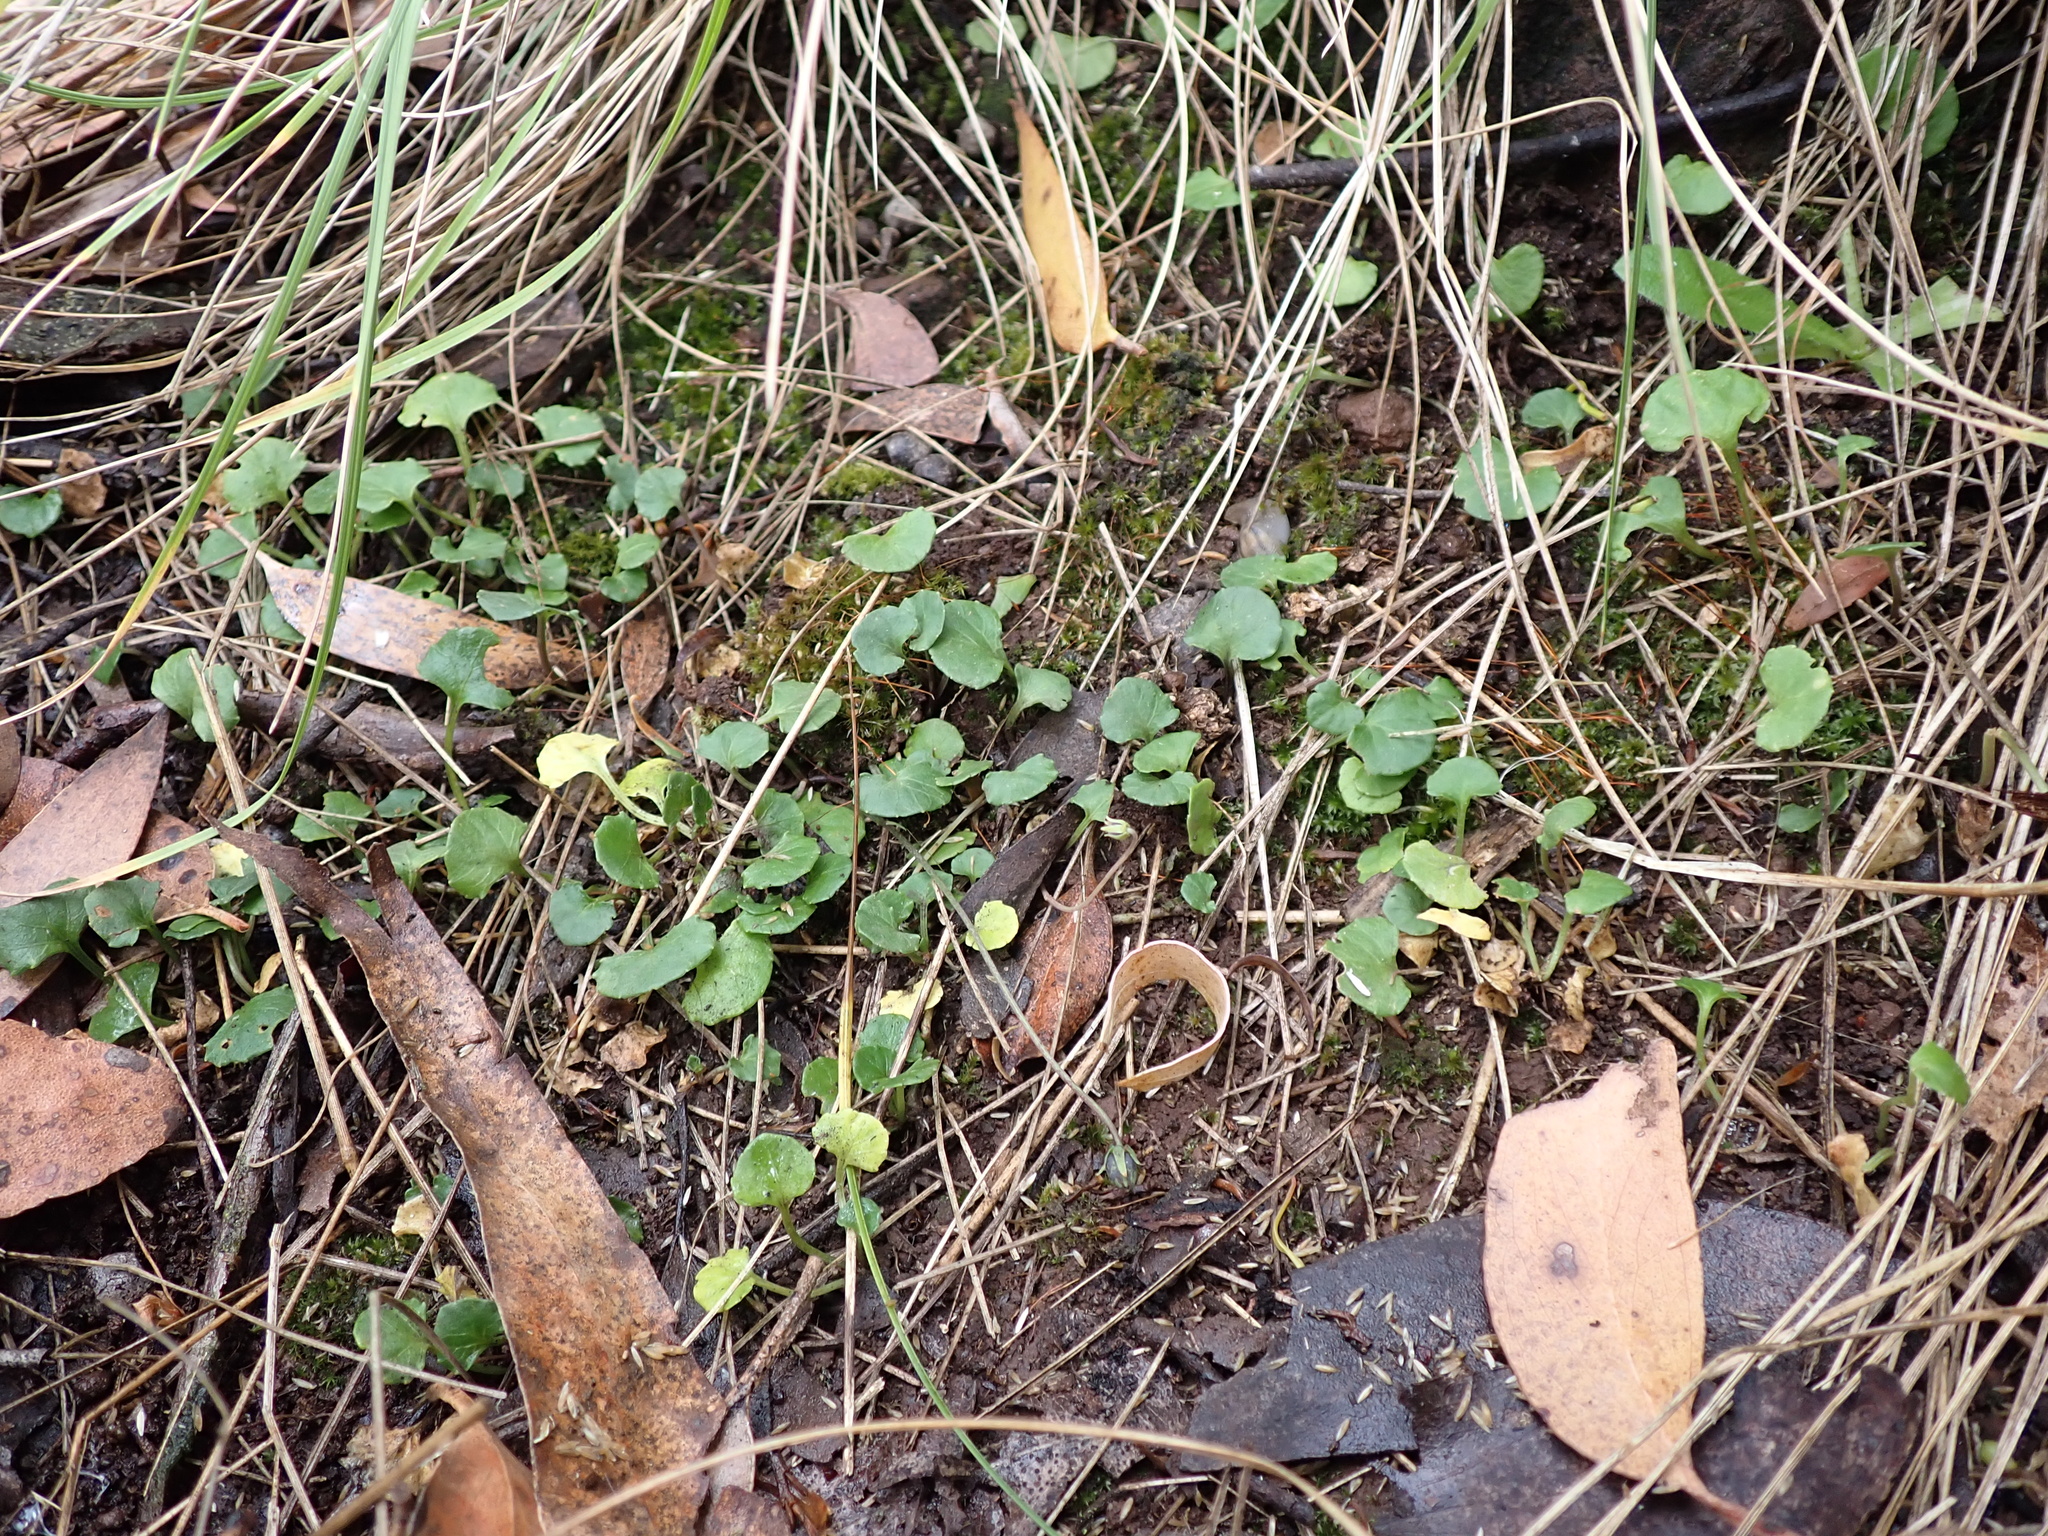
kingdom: Plantae
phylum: Tracheophyta
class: Magnoliopsida
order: Malpighiales
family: Violaceae
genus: Viola
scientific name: Viola hederacea
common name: Australian violet
